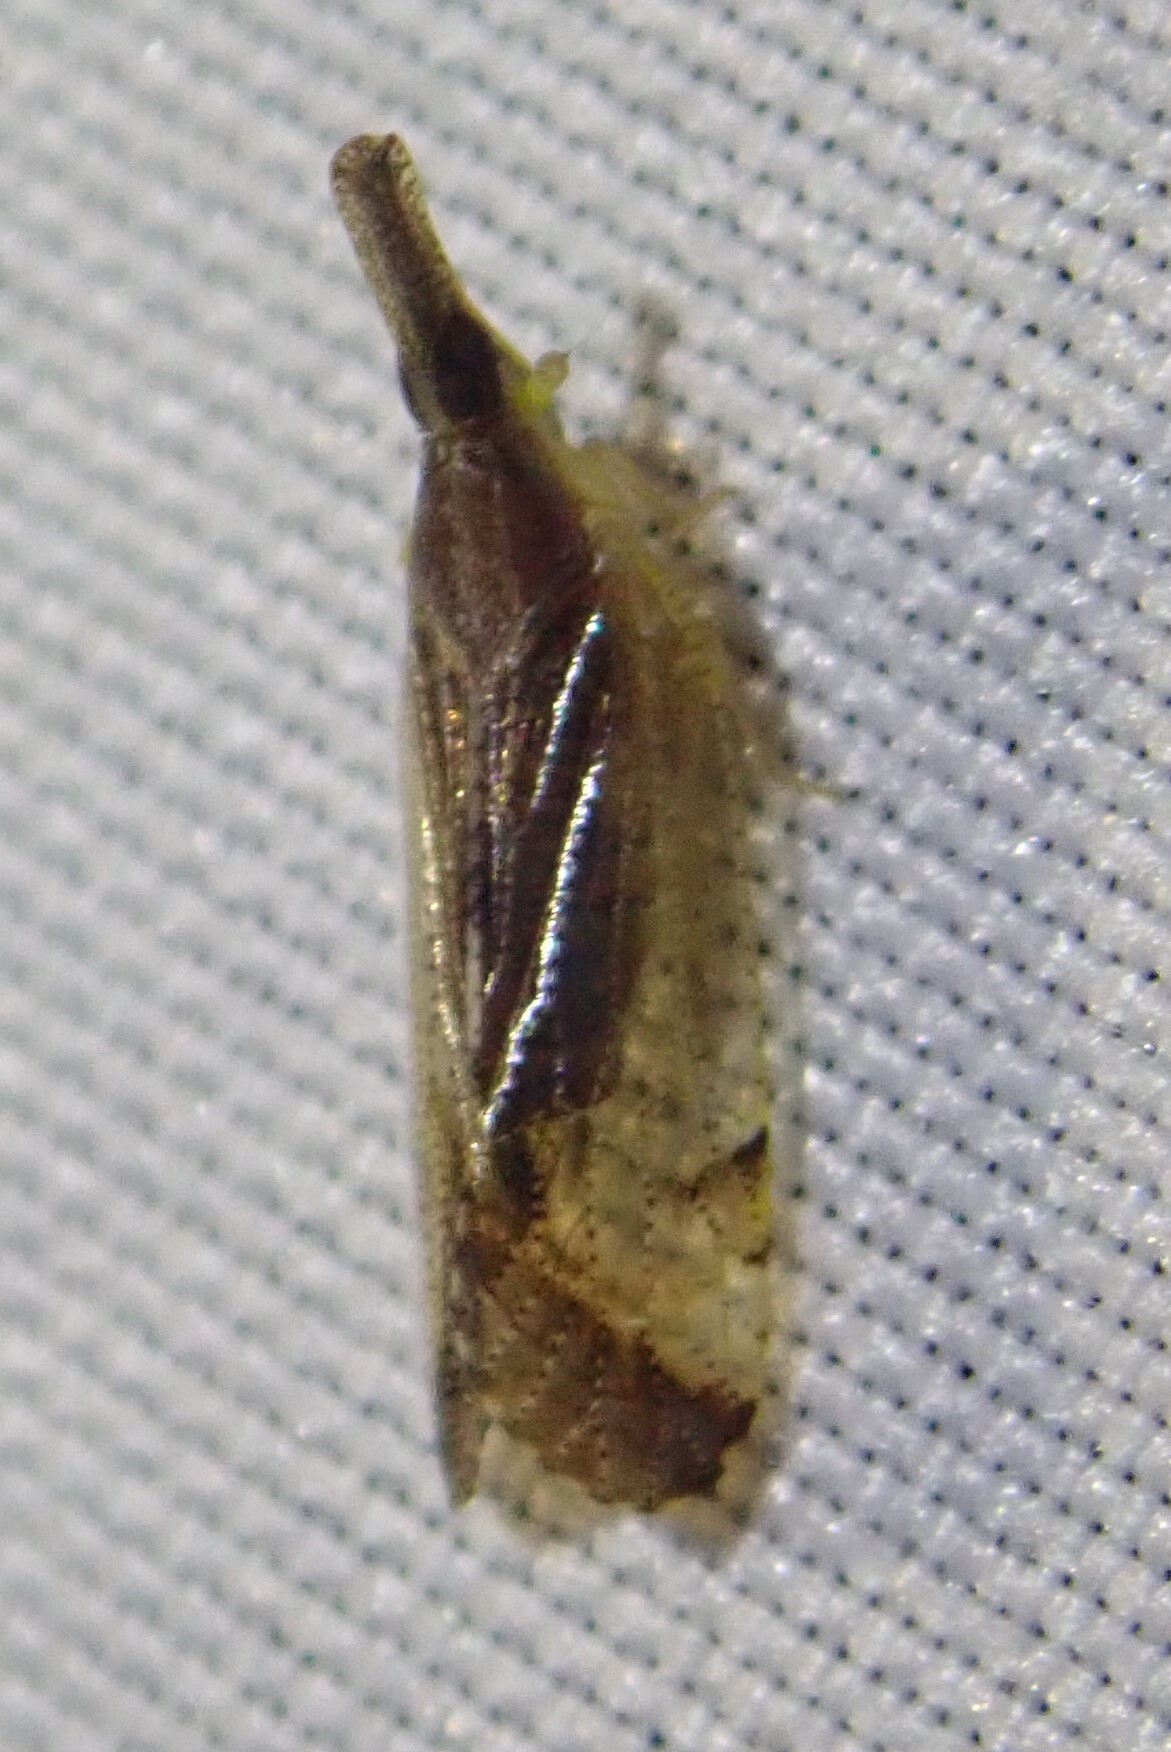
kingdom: Animalia
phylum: Arthropoda
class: Insecta
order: Hemiptera
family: Cixiidae
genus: Rhamphixius
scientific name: Rhamphixius championi
